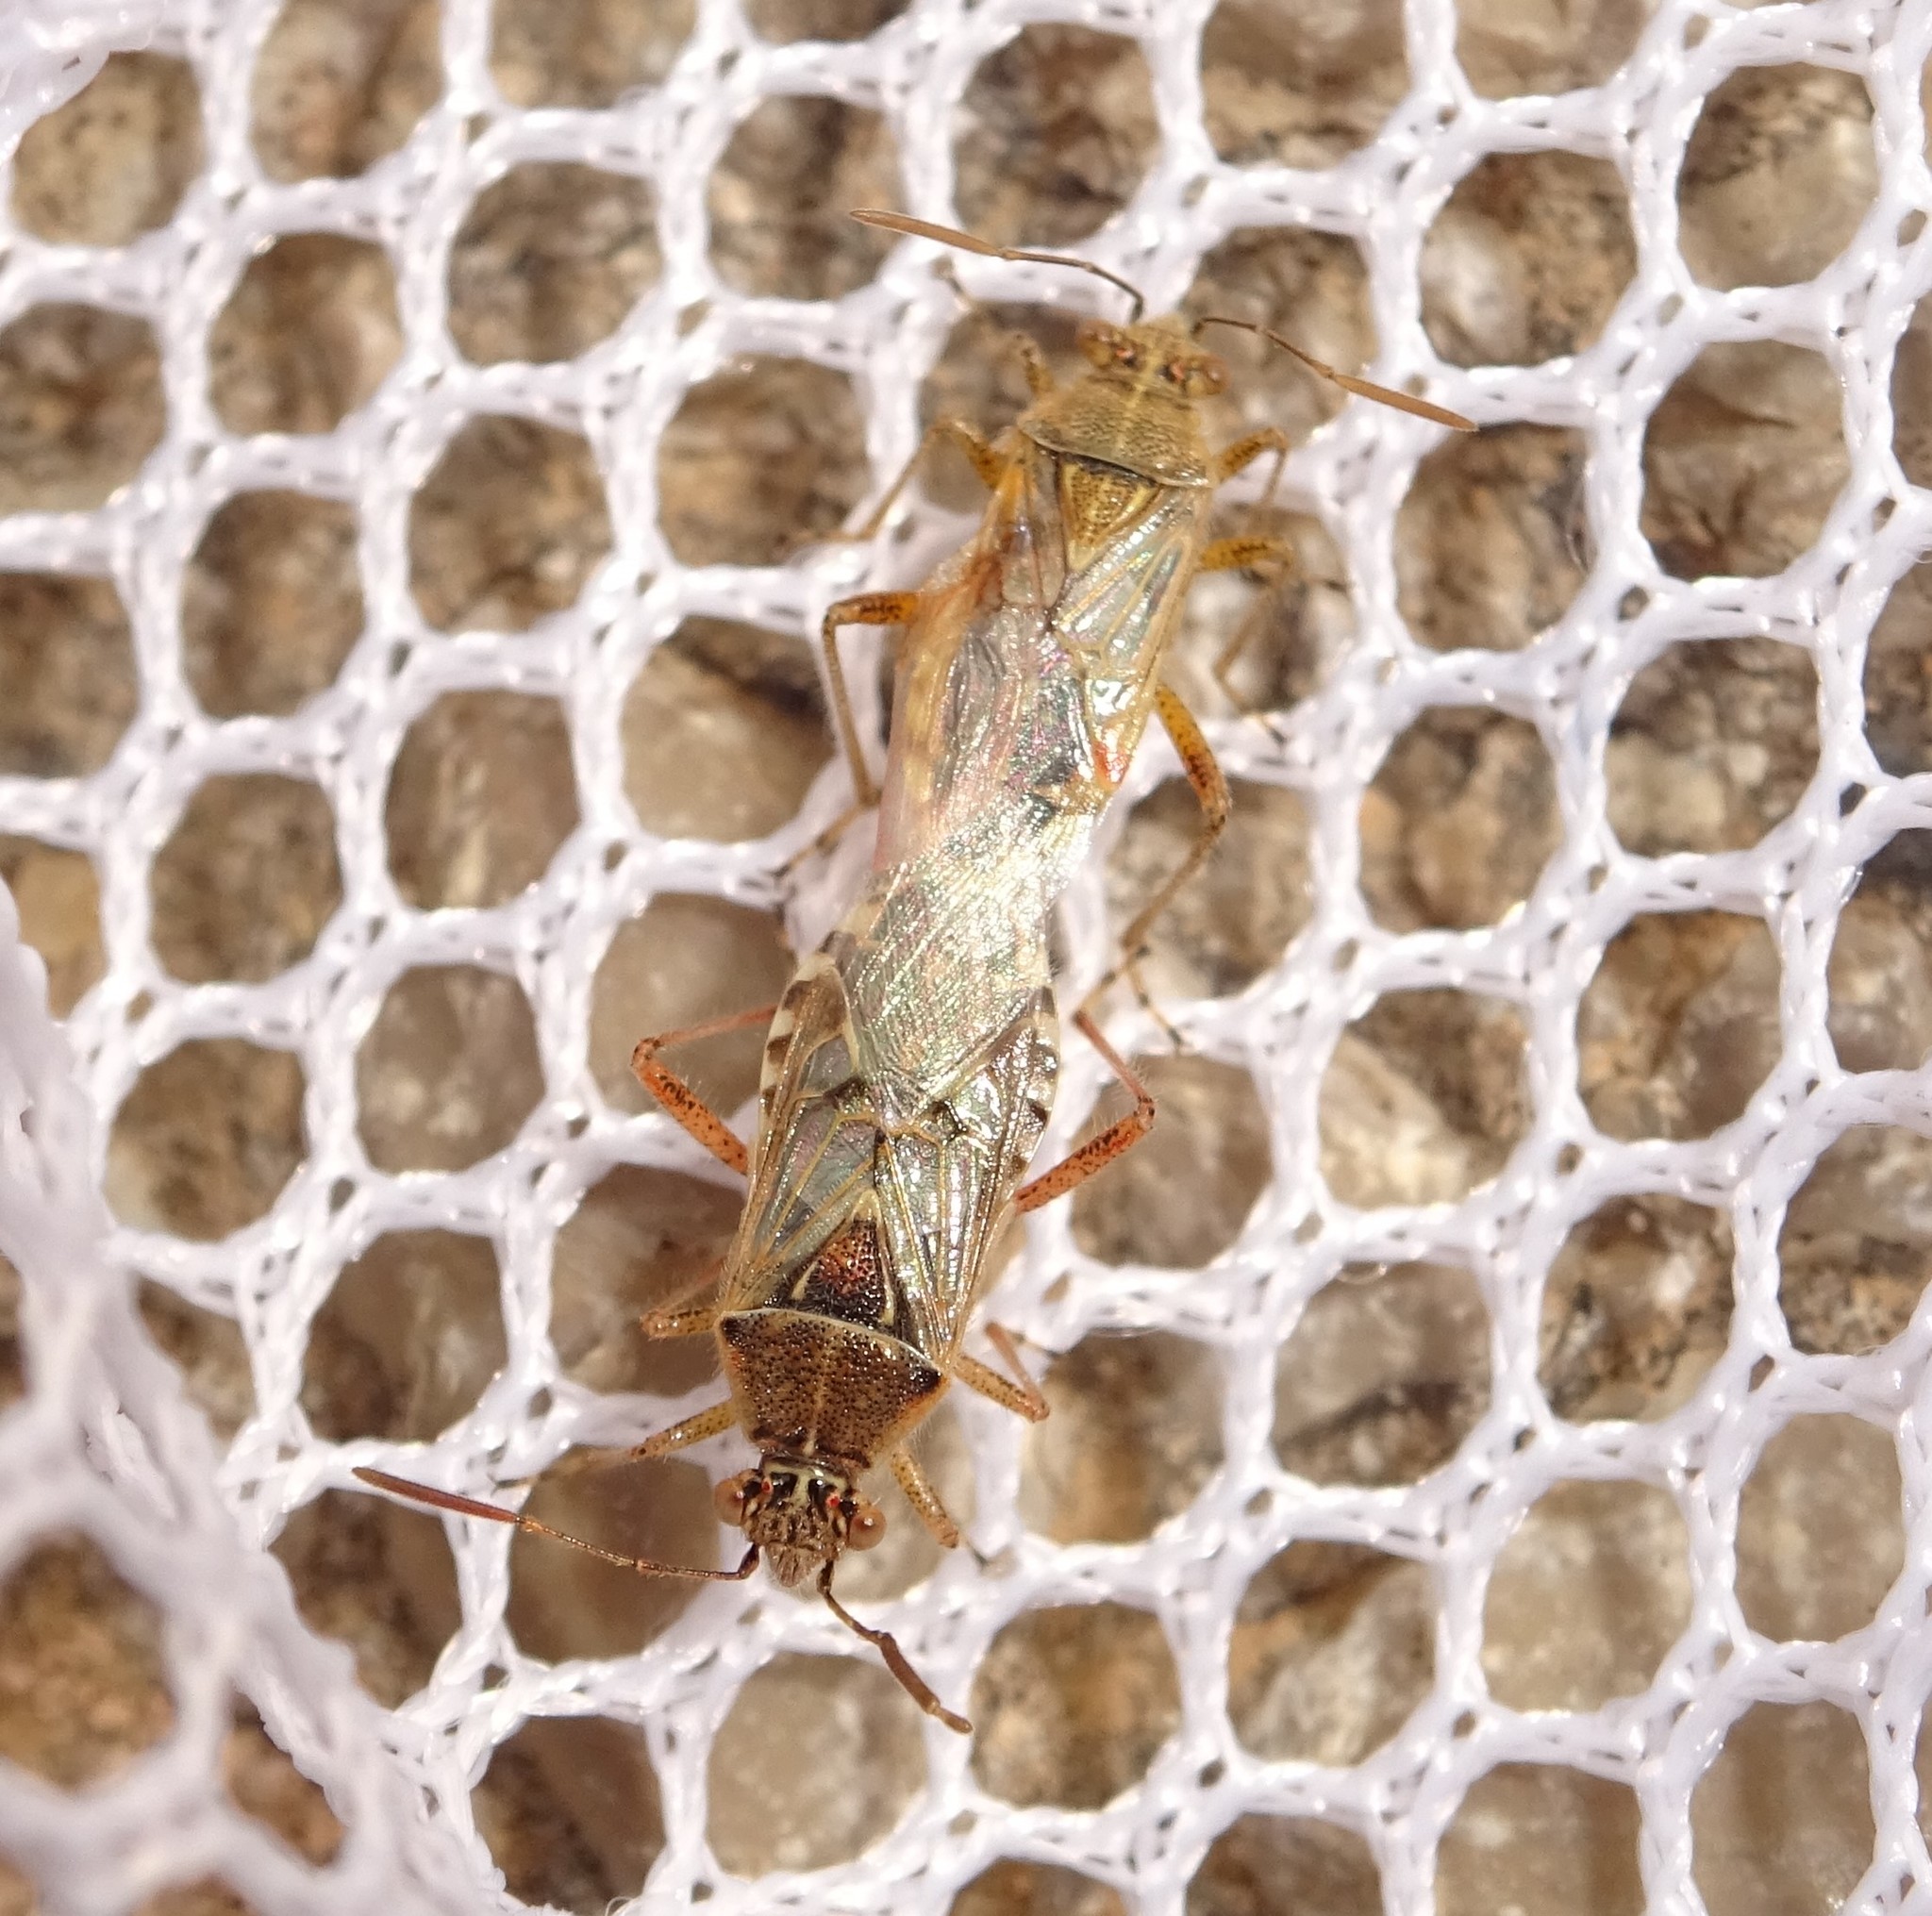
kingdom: Animalia
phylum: Arthropoda
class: Insecta
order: Hemiptera
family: Rhopalidae
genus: Liorhyssus
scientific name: Liorhyssus hyalinus
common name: Scentless plant bug
